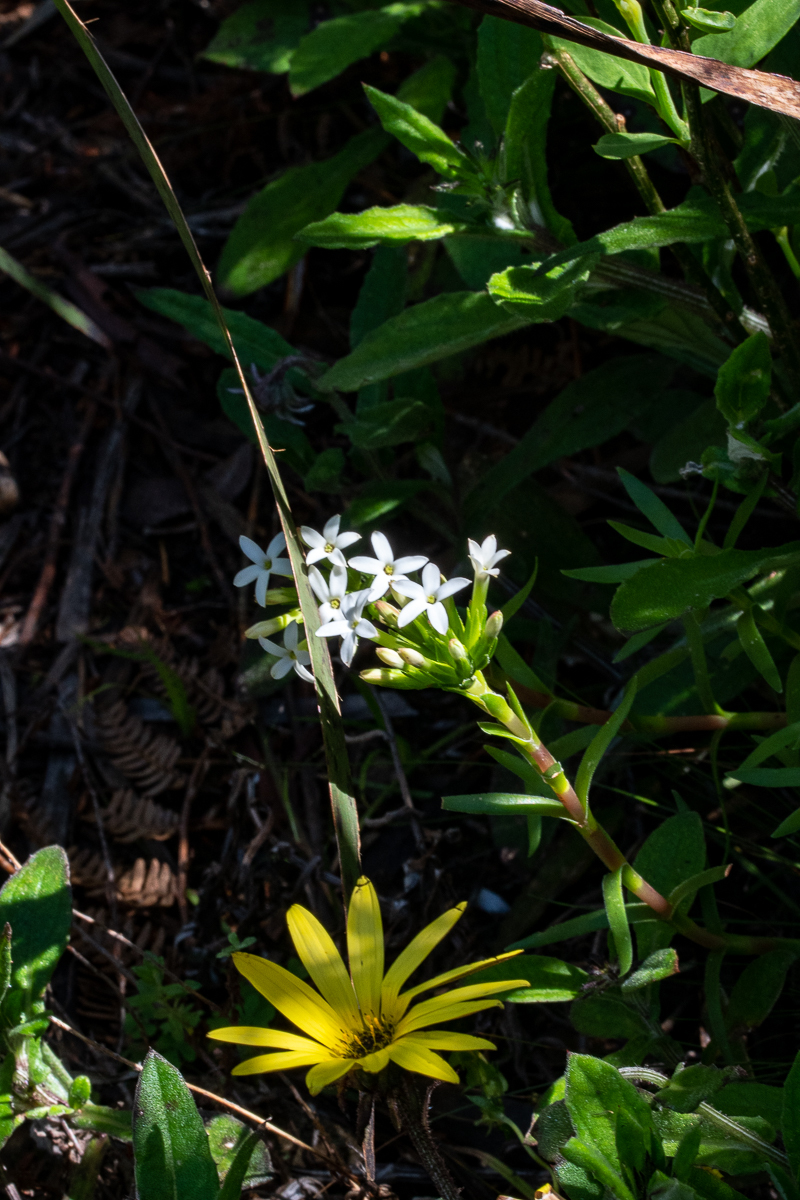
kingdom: Plantae
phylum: Tracheophyta
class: Magnoliopsida
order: Saxifragales
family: Crassulaceae
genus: Crassula
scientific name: Crassula fascicularis
